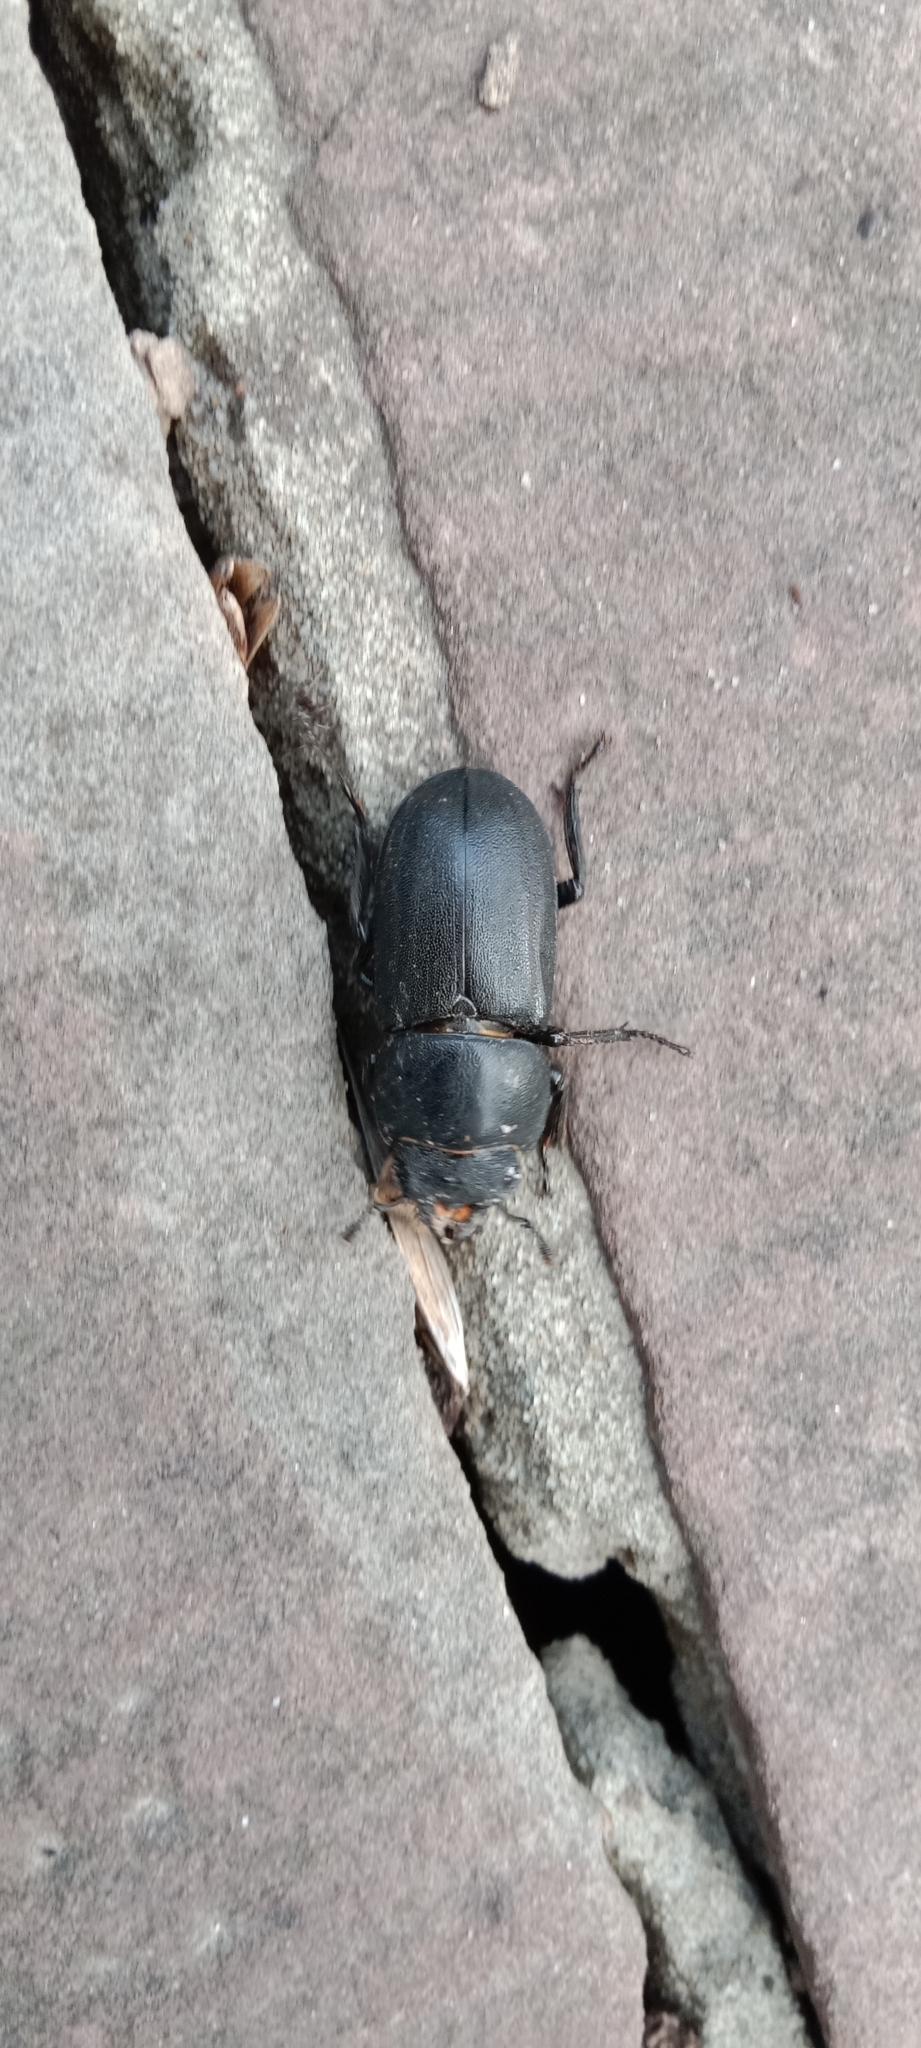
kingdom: Animalia
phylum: Arthropoda
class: Insecta
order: Coleoptera
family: Lucanidae
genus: Dorcus
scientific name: Dorcus parallelipipedus
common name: Lesser stag beetle
